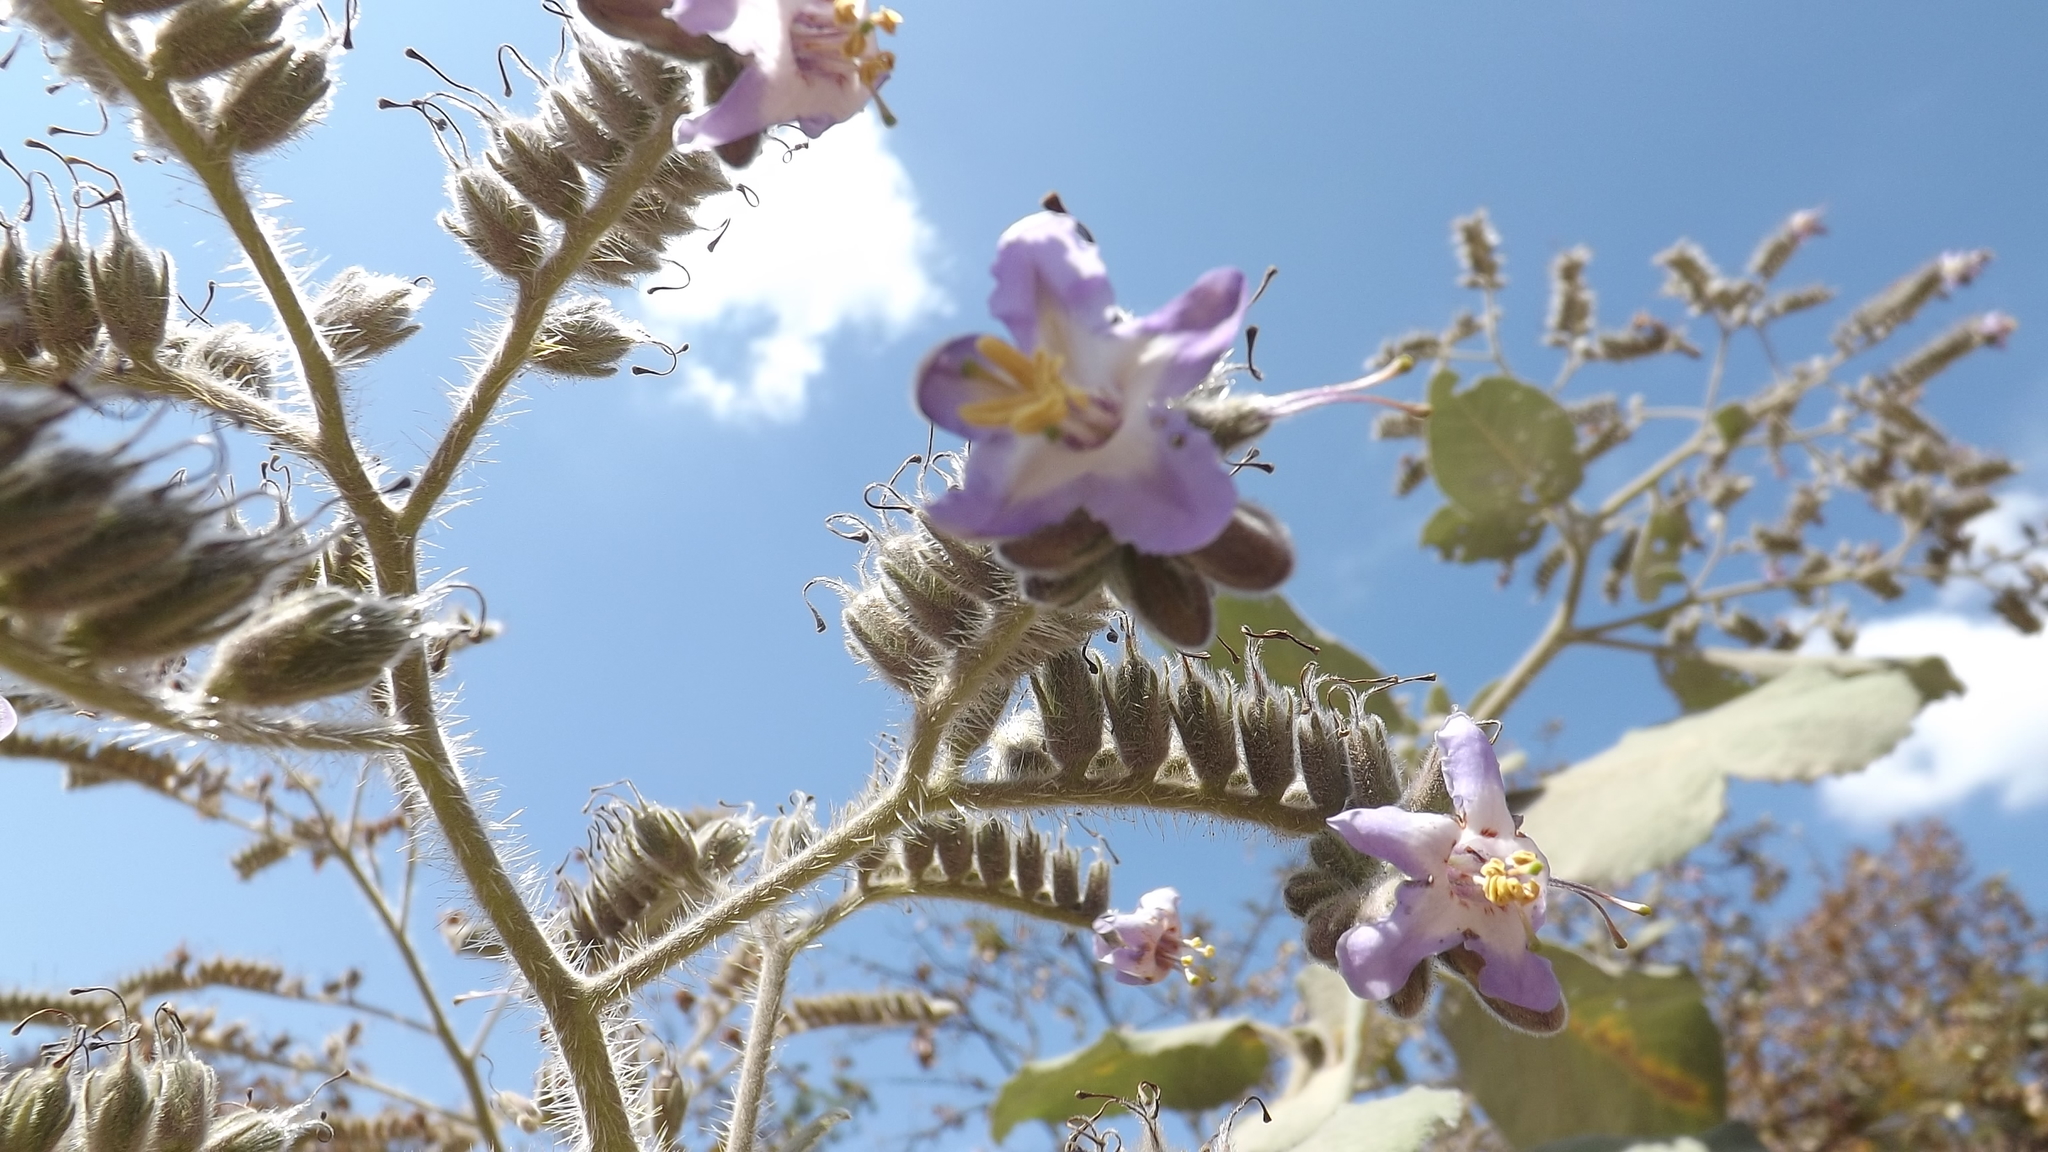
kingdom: Plantae
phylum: Tracheophyta
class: Magnoliopsida
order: Boraginales
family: Namaceae
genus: Wigandia
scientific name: Wigandia urens
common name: Caracus wigandia
